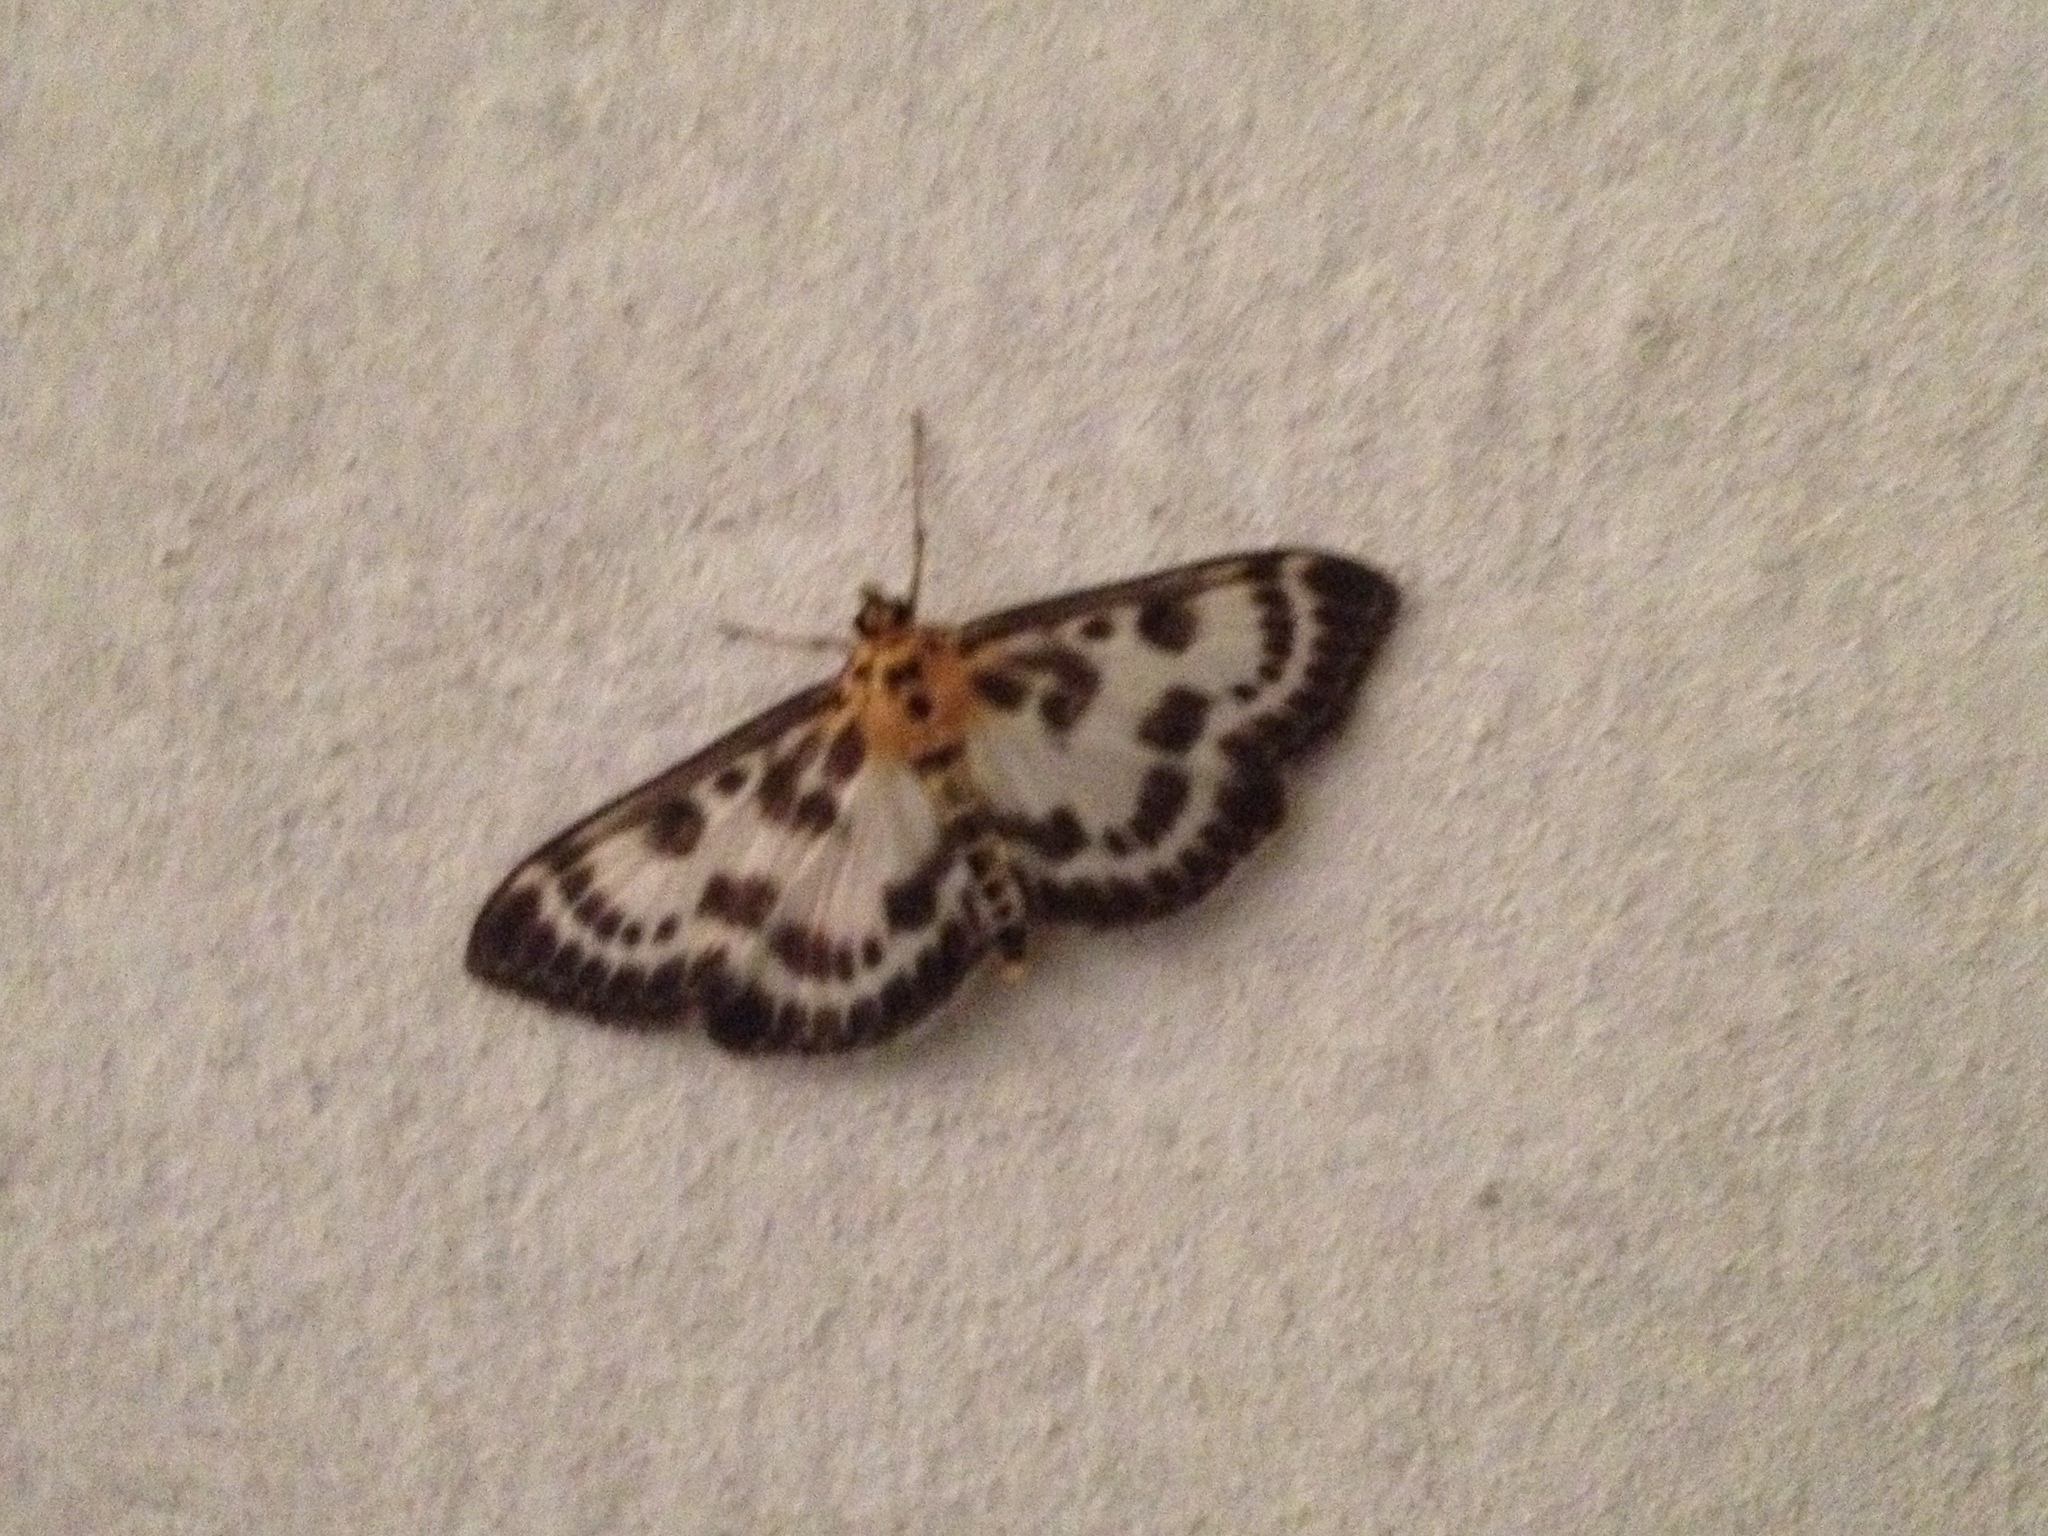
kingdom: Animalia
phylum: Arthropoda
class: Insecta
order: Lepidoptera
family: Crambidae
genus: Anania
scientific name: Anania hortulata
